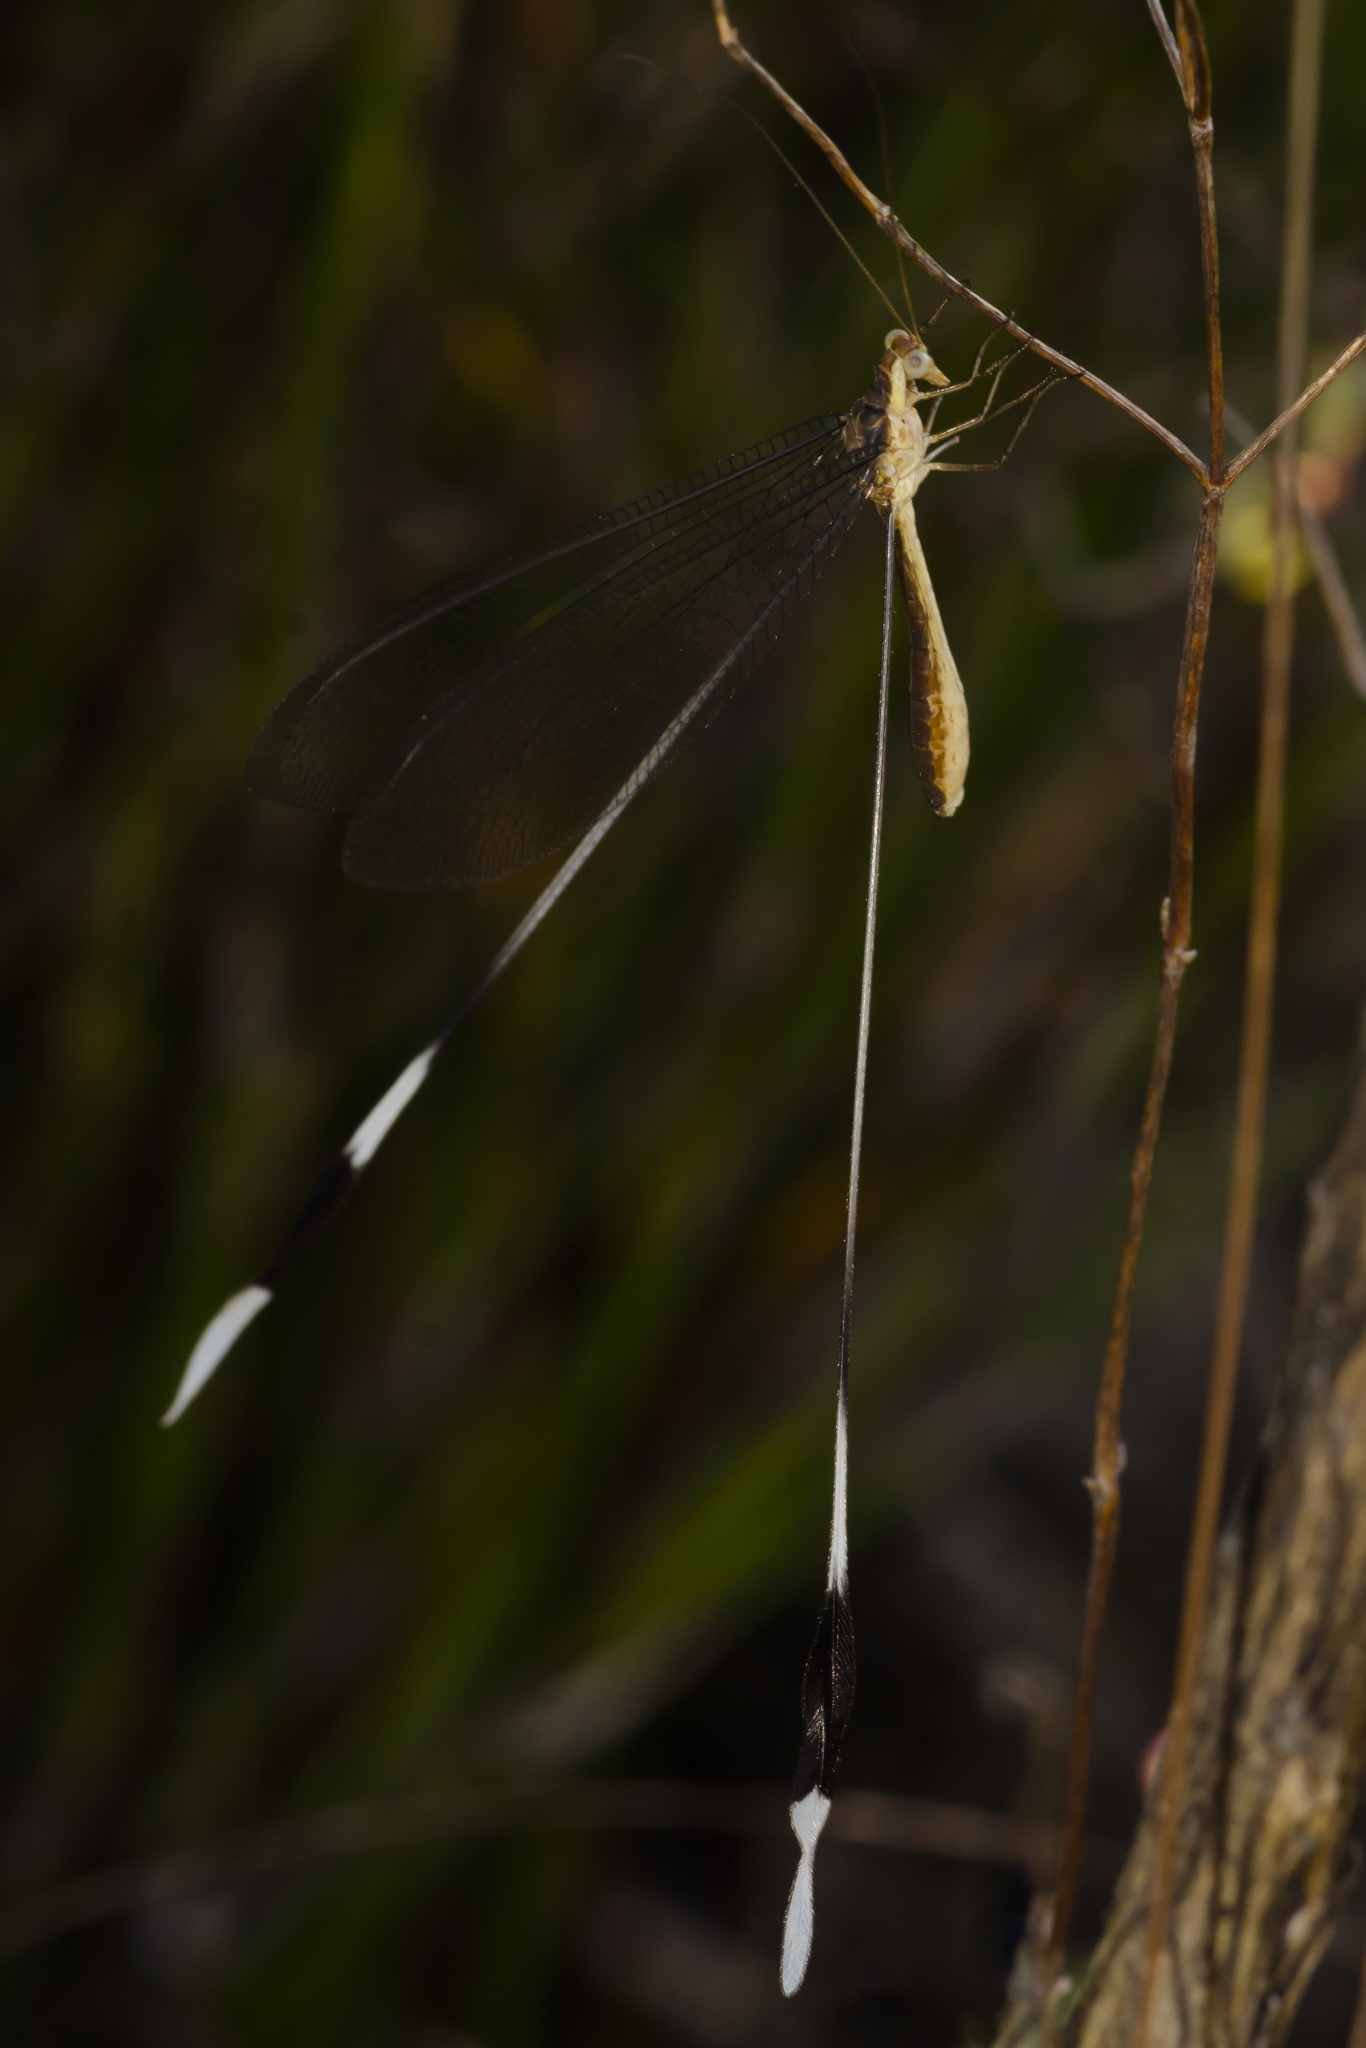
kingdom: Animalia
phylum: Arthropoda
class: Insecta
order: Neuroptera
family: Nemopteridae
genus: Nemeura
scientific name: Nemeura gracilis
